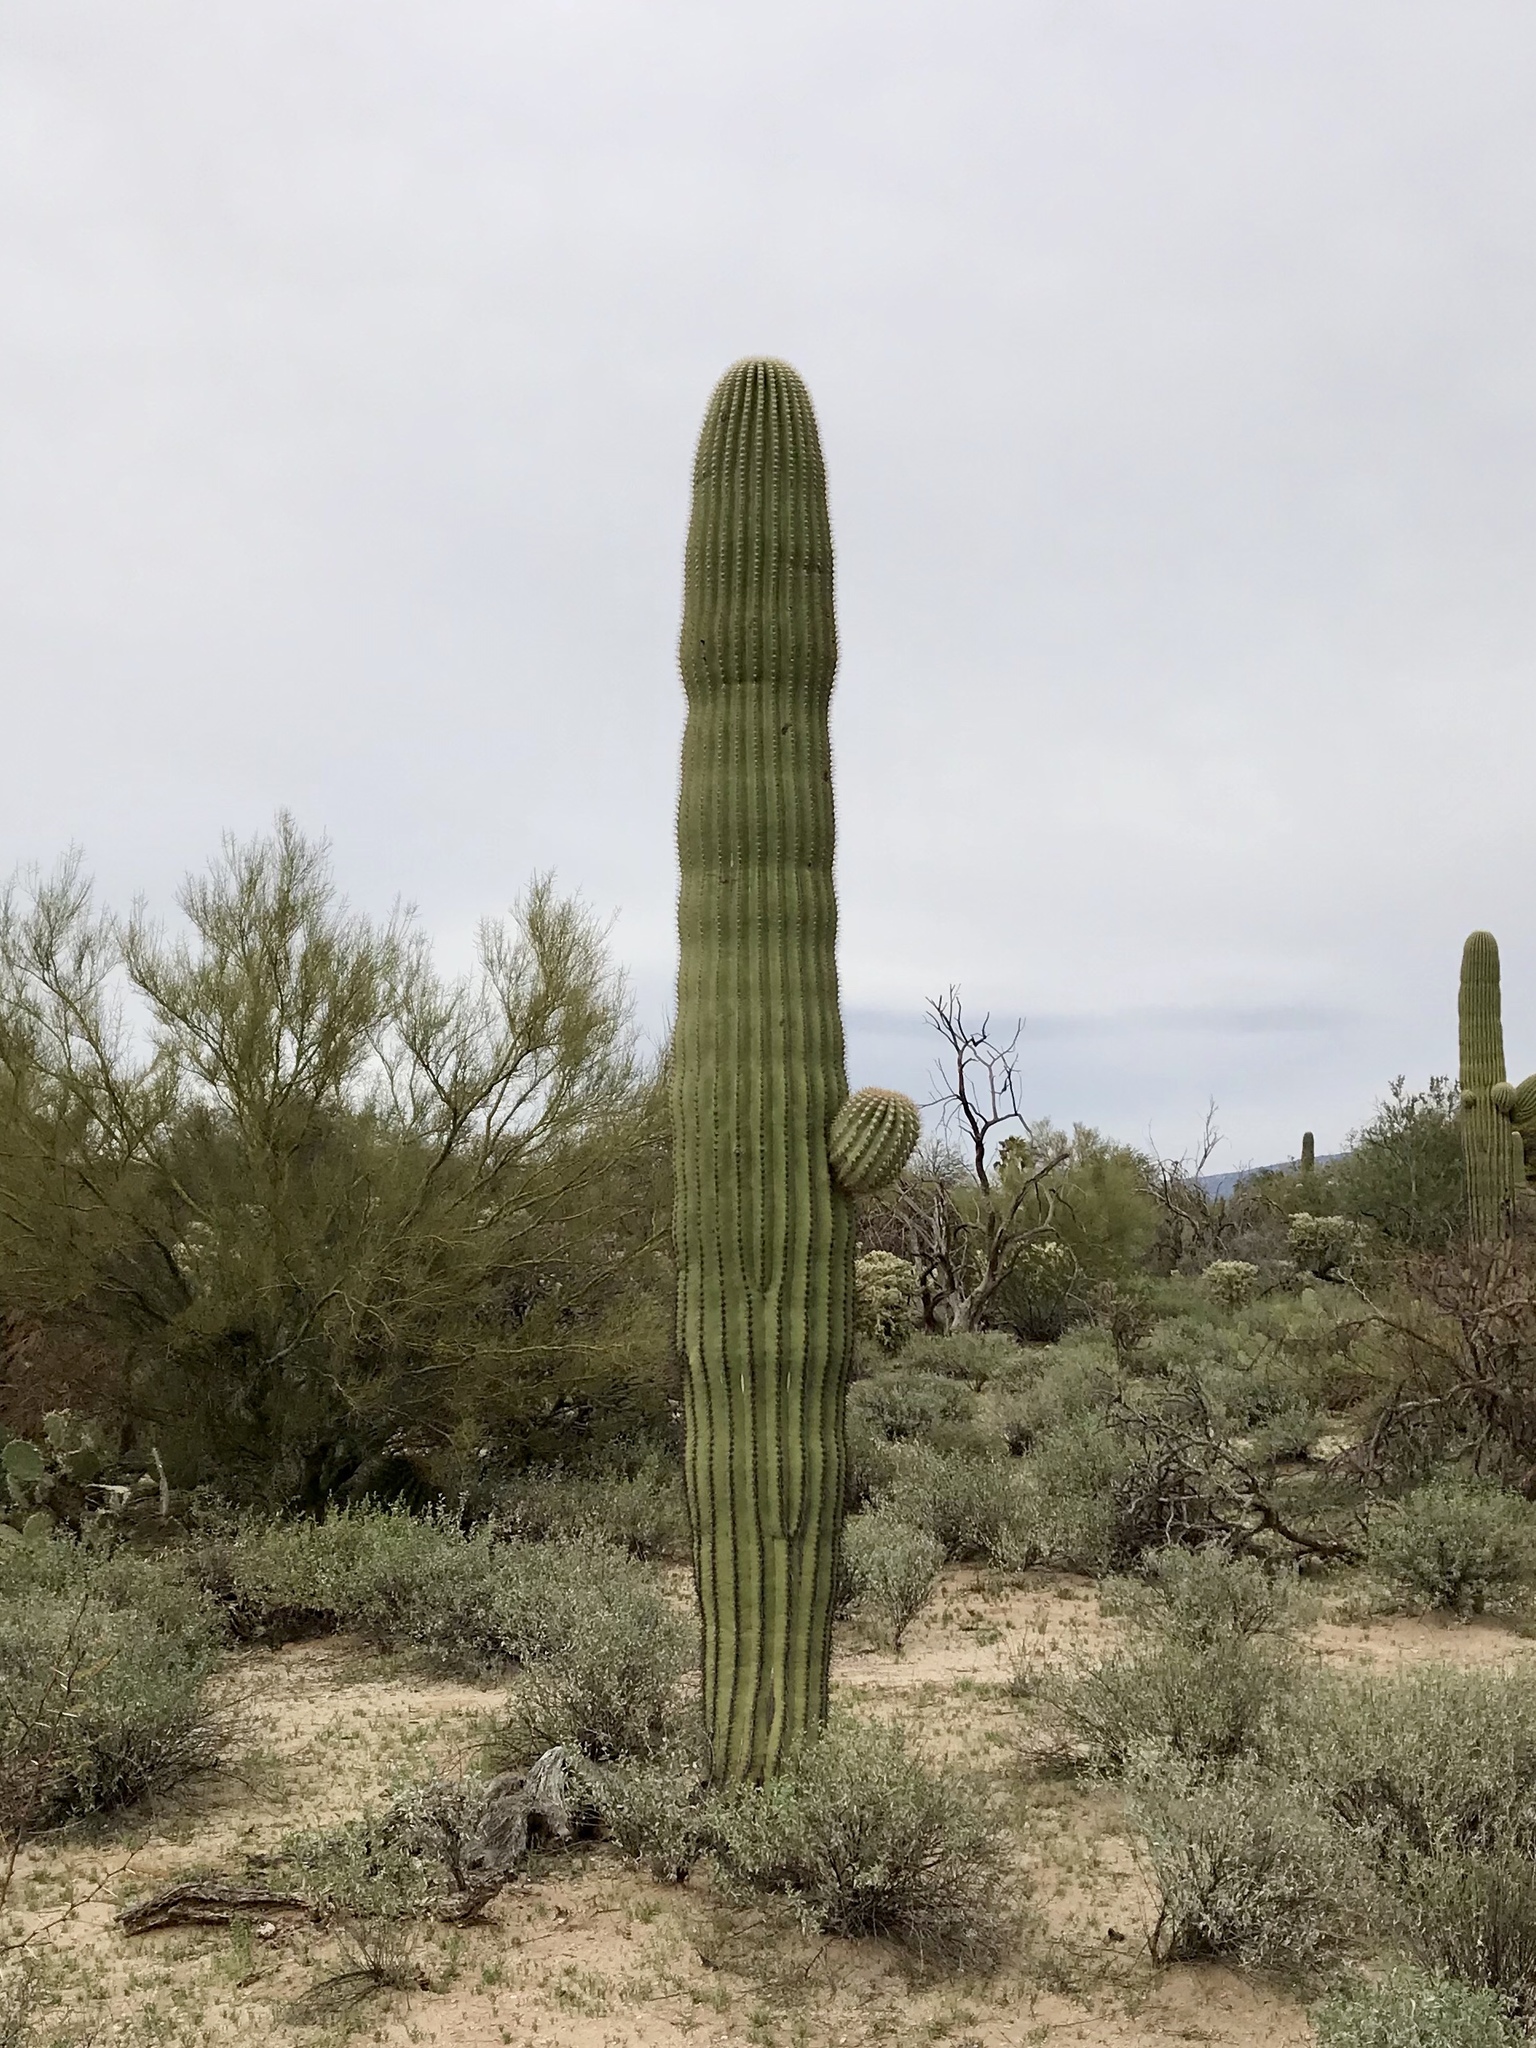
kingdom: Plantae
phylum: Tracheophyta
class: Magnoliopsida
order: Caryophyllales
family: Cactaceae
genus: Carnegiea
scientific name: Carnegiea gigantea
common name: Saguaro
